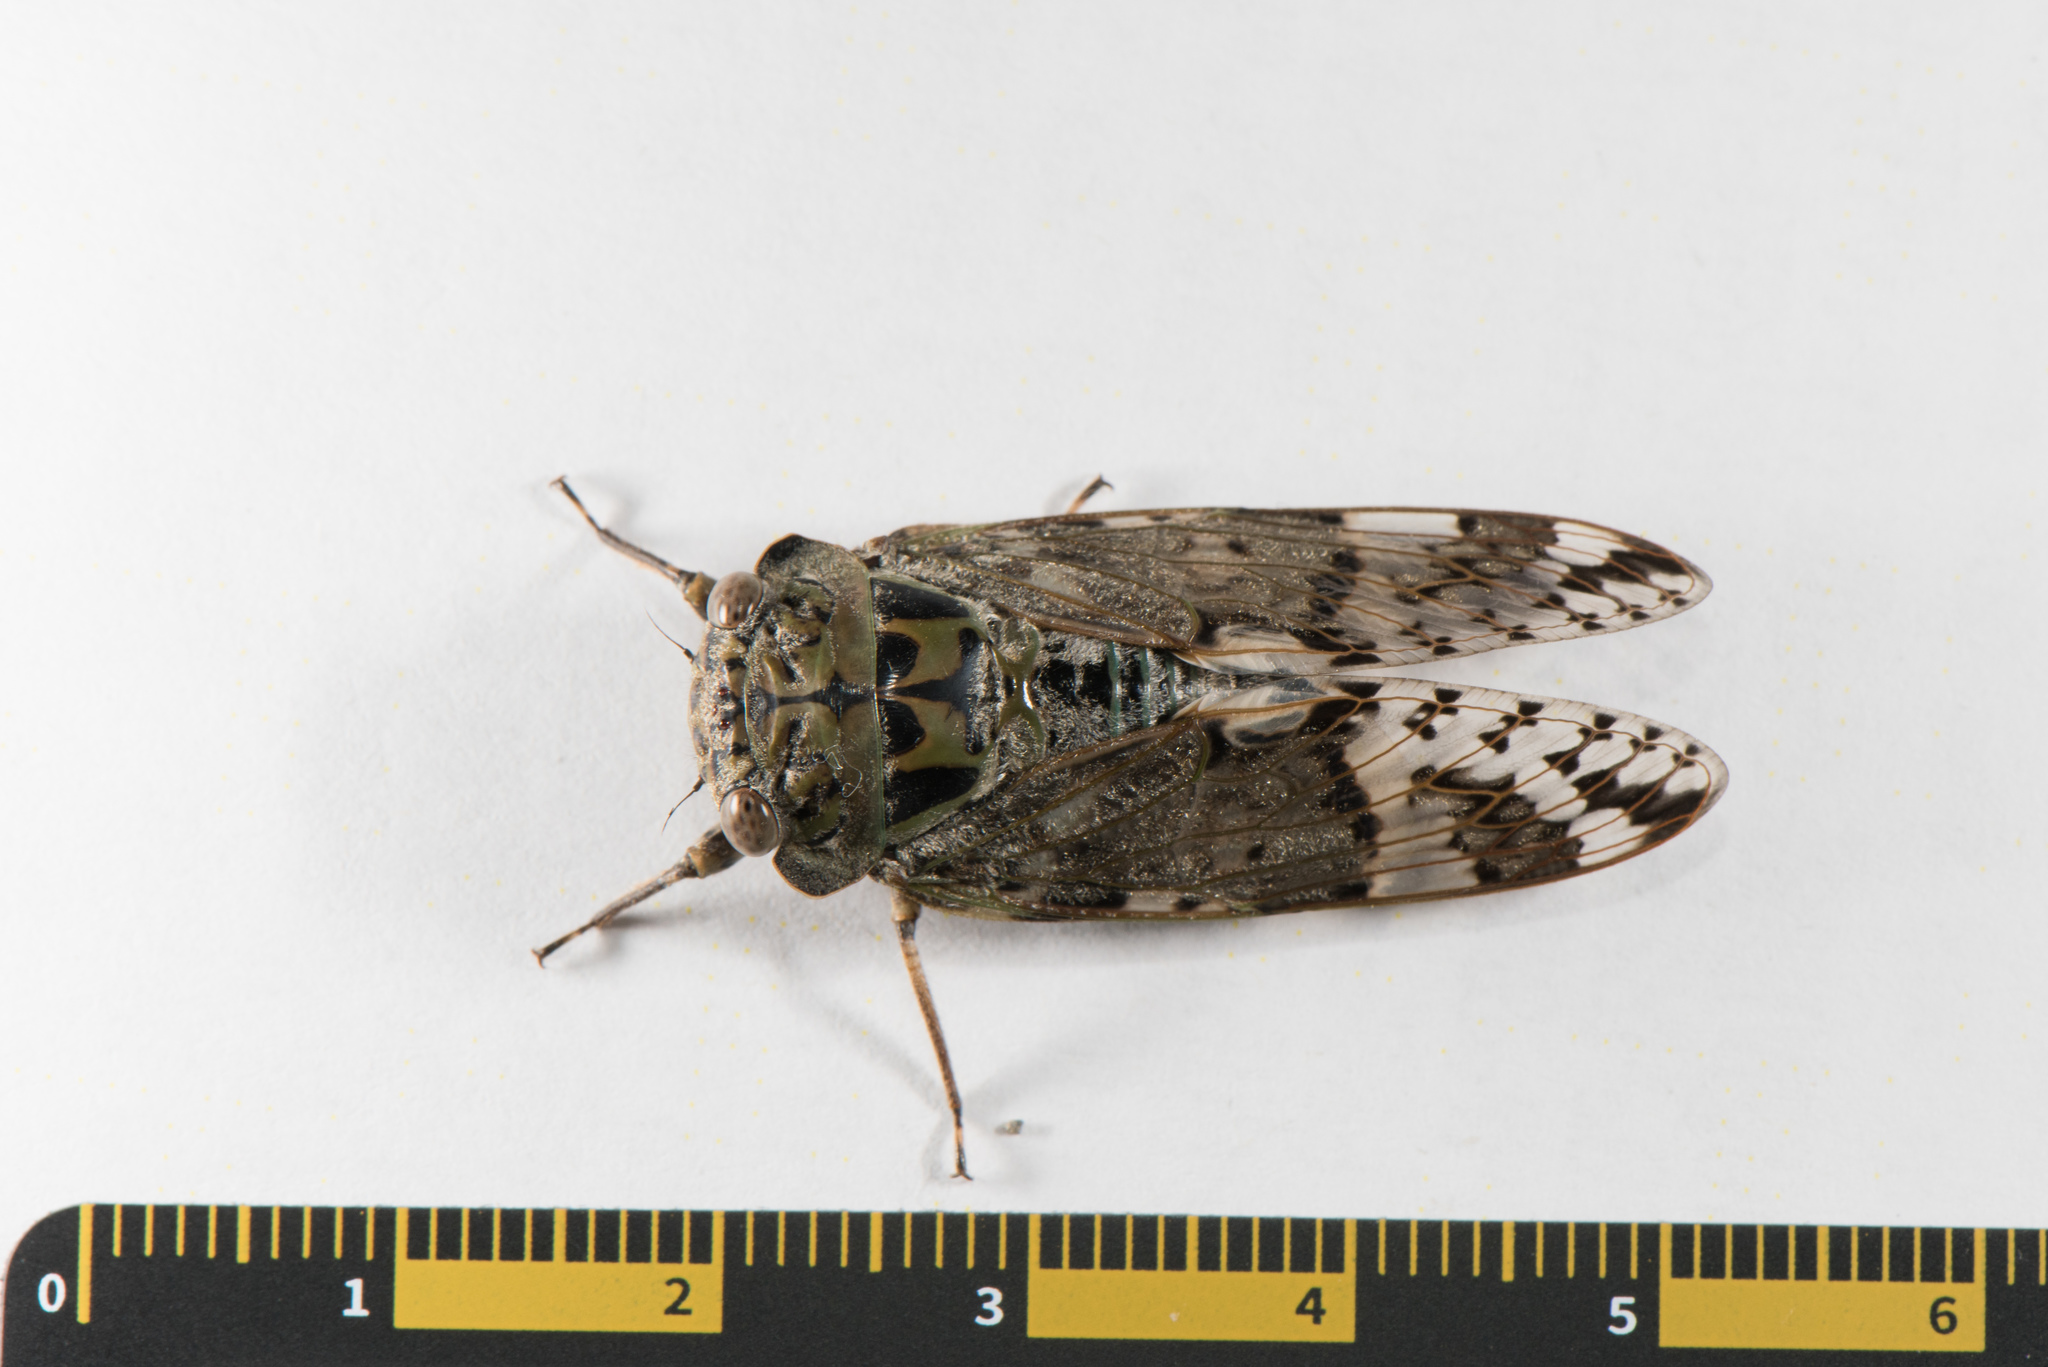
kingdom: Animalia
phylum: Arthropoda
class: Insecta
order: Hemiptera
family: Cicadidae
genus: Platypleura
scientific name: Platypleura takasagona
